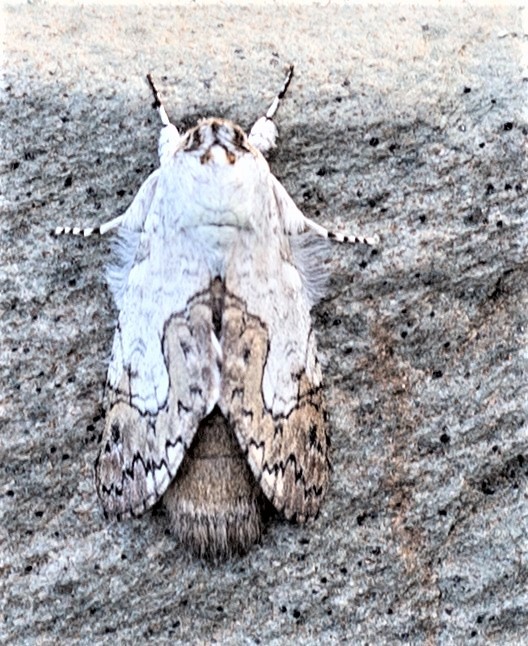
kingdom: Animalia
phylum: Arthropoda
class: Insecta
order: Lepidoptera
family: Notodontidae
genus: Ginaldia
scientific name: Ginaldia
